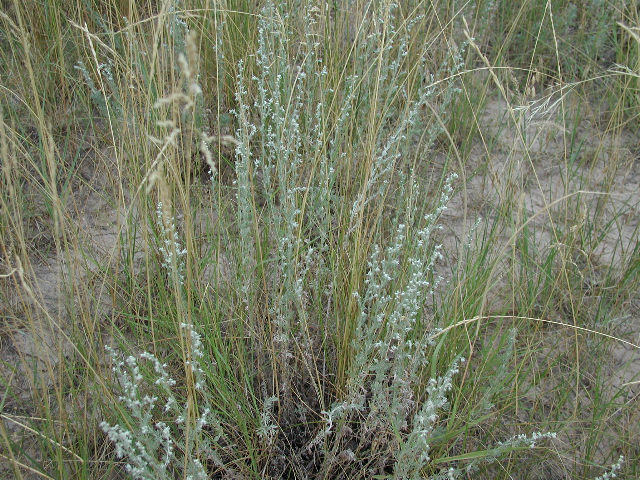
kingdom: Plantae
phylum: Tracheophyta
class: Magnoliopsida
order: Asterales
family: Asteraceae
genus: Artemisia
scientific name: Artemisia frigida
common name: Prairie sagewort
